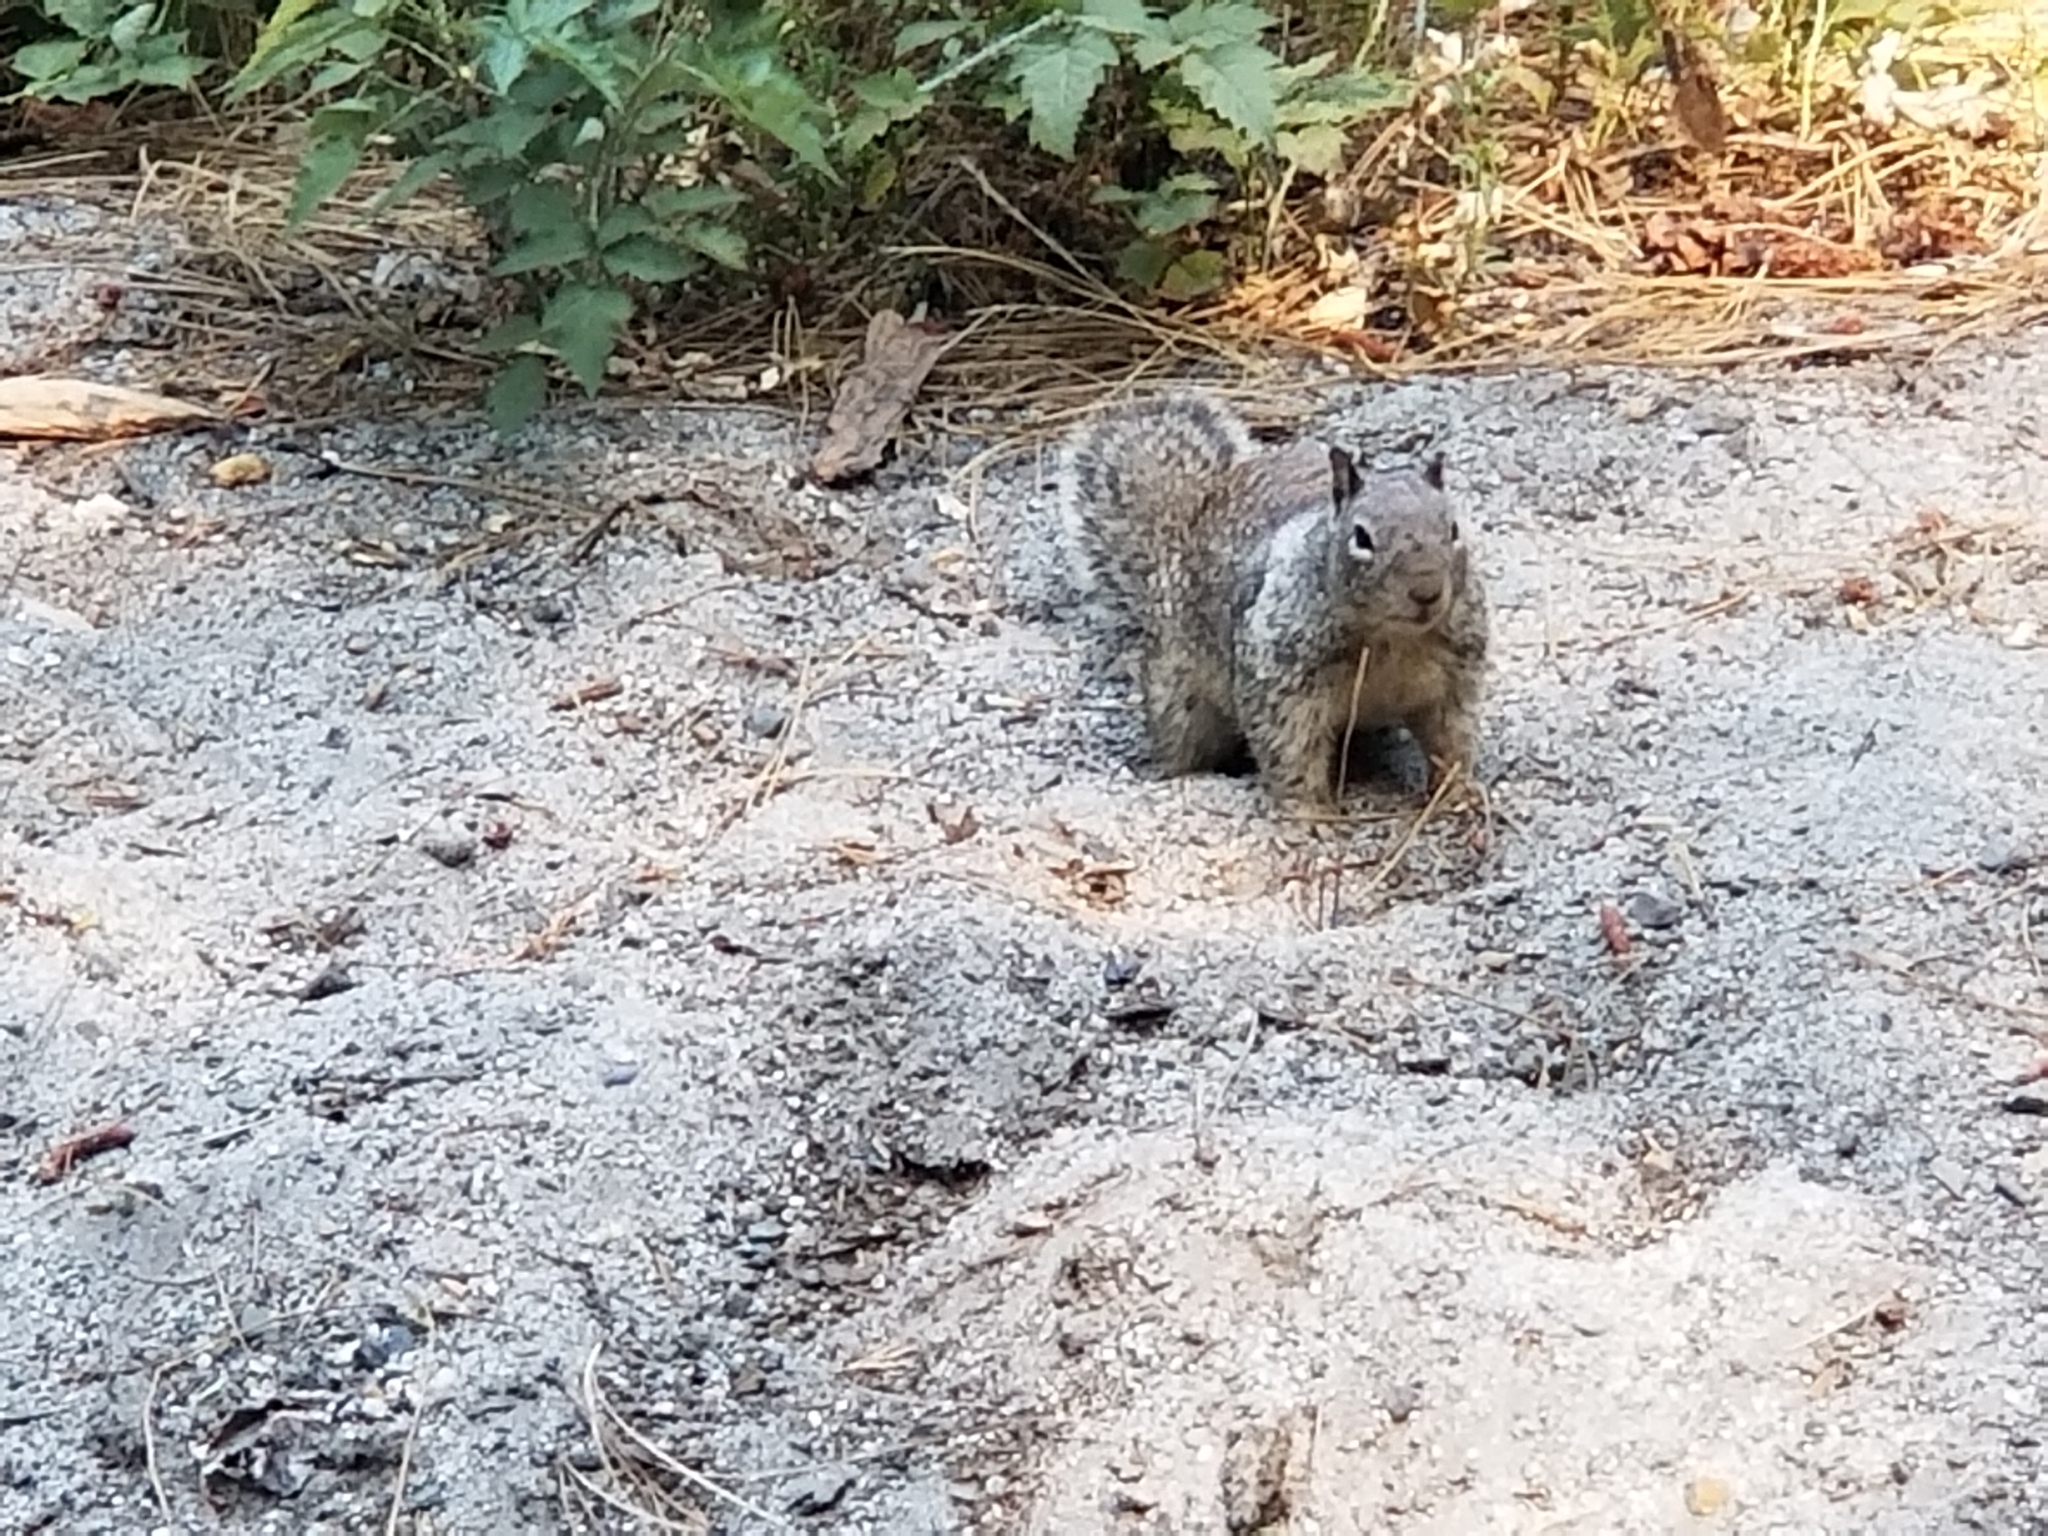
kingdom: Animalia
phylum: Chordata
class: Mammalia
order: Rodentia
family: Sciuridae
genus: Otospermophilus
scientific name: Otospermophilus beecheyi
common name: California ground squirrel
